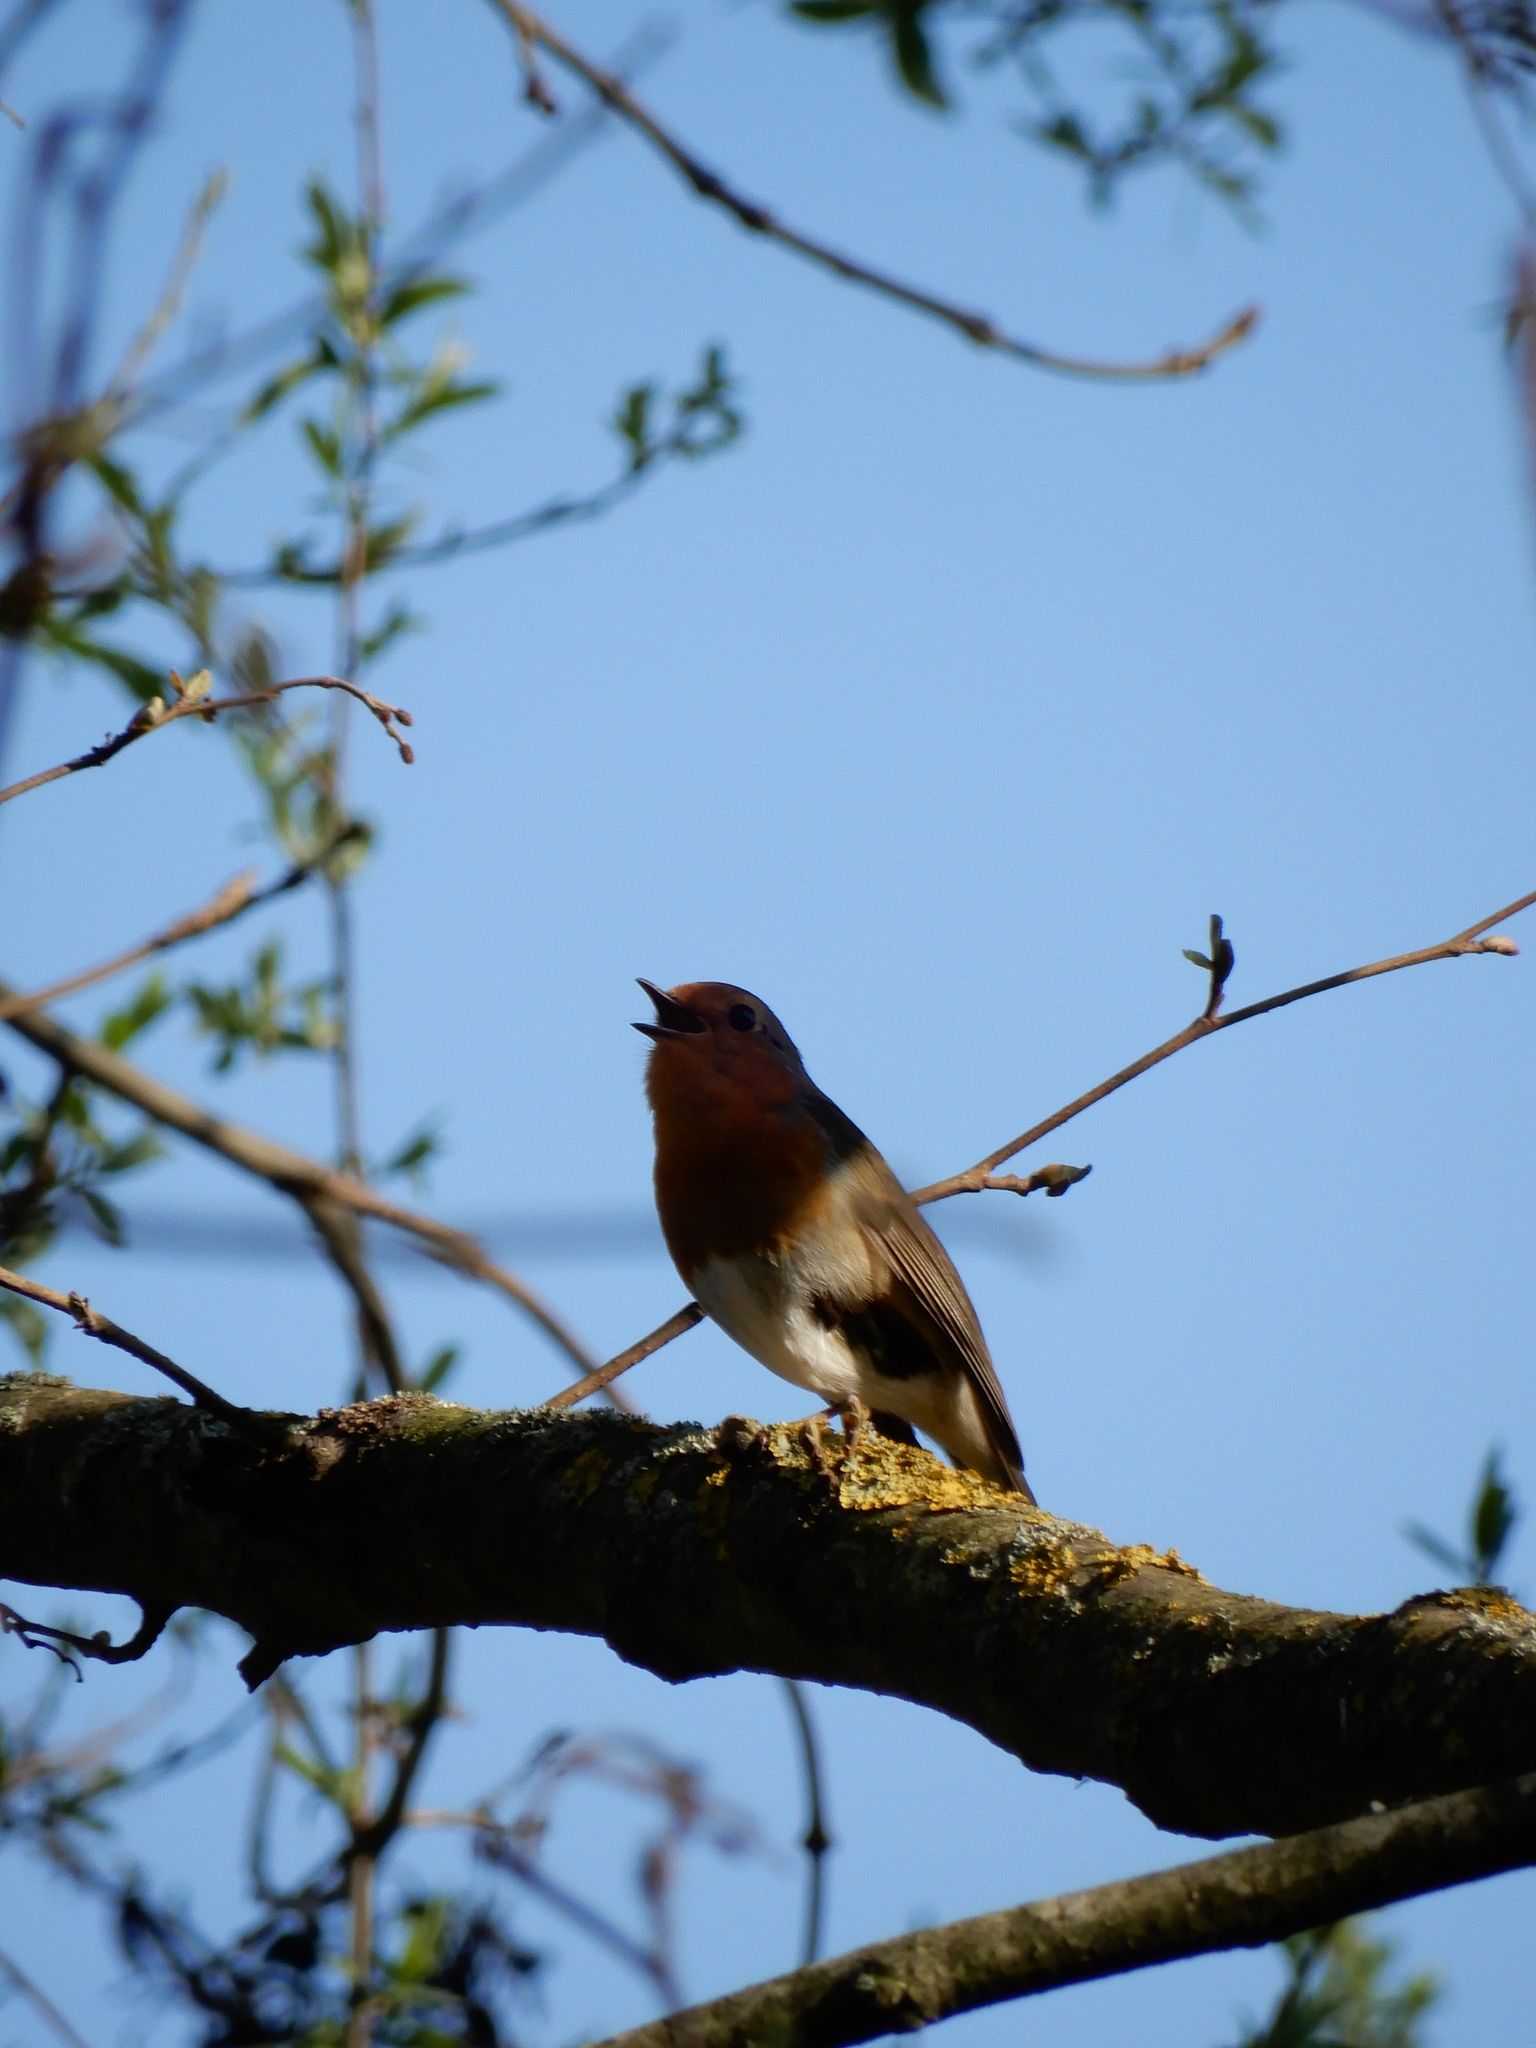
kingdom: Animalia
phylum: Chordata
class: Aves
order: Passeriformes
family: Muscicapidae
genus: Erithacus
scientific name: Erithacus rubecula
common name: European robin
